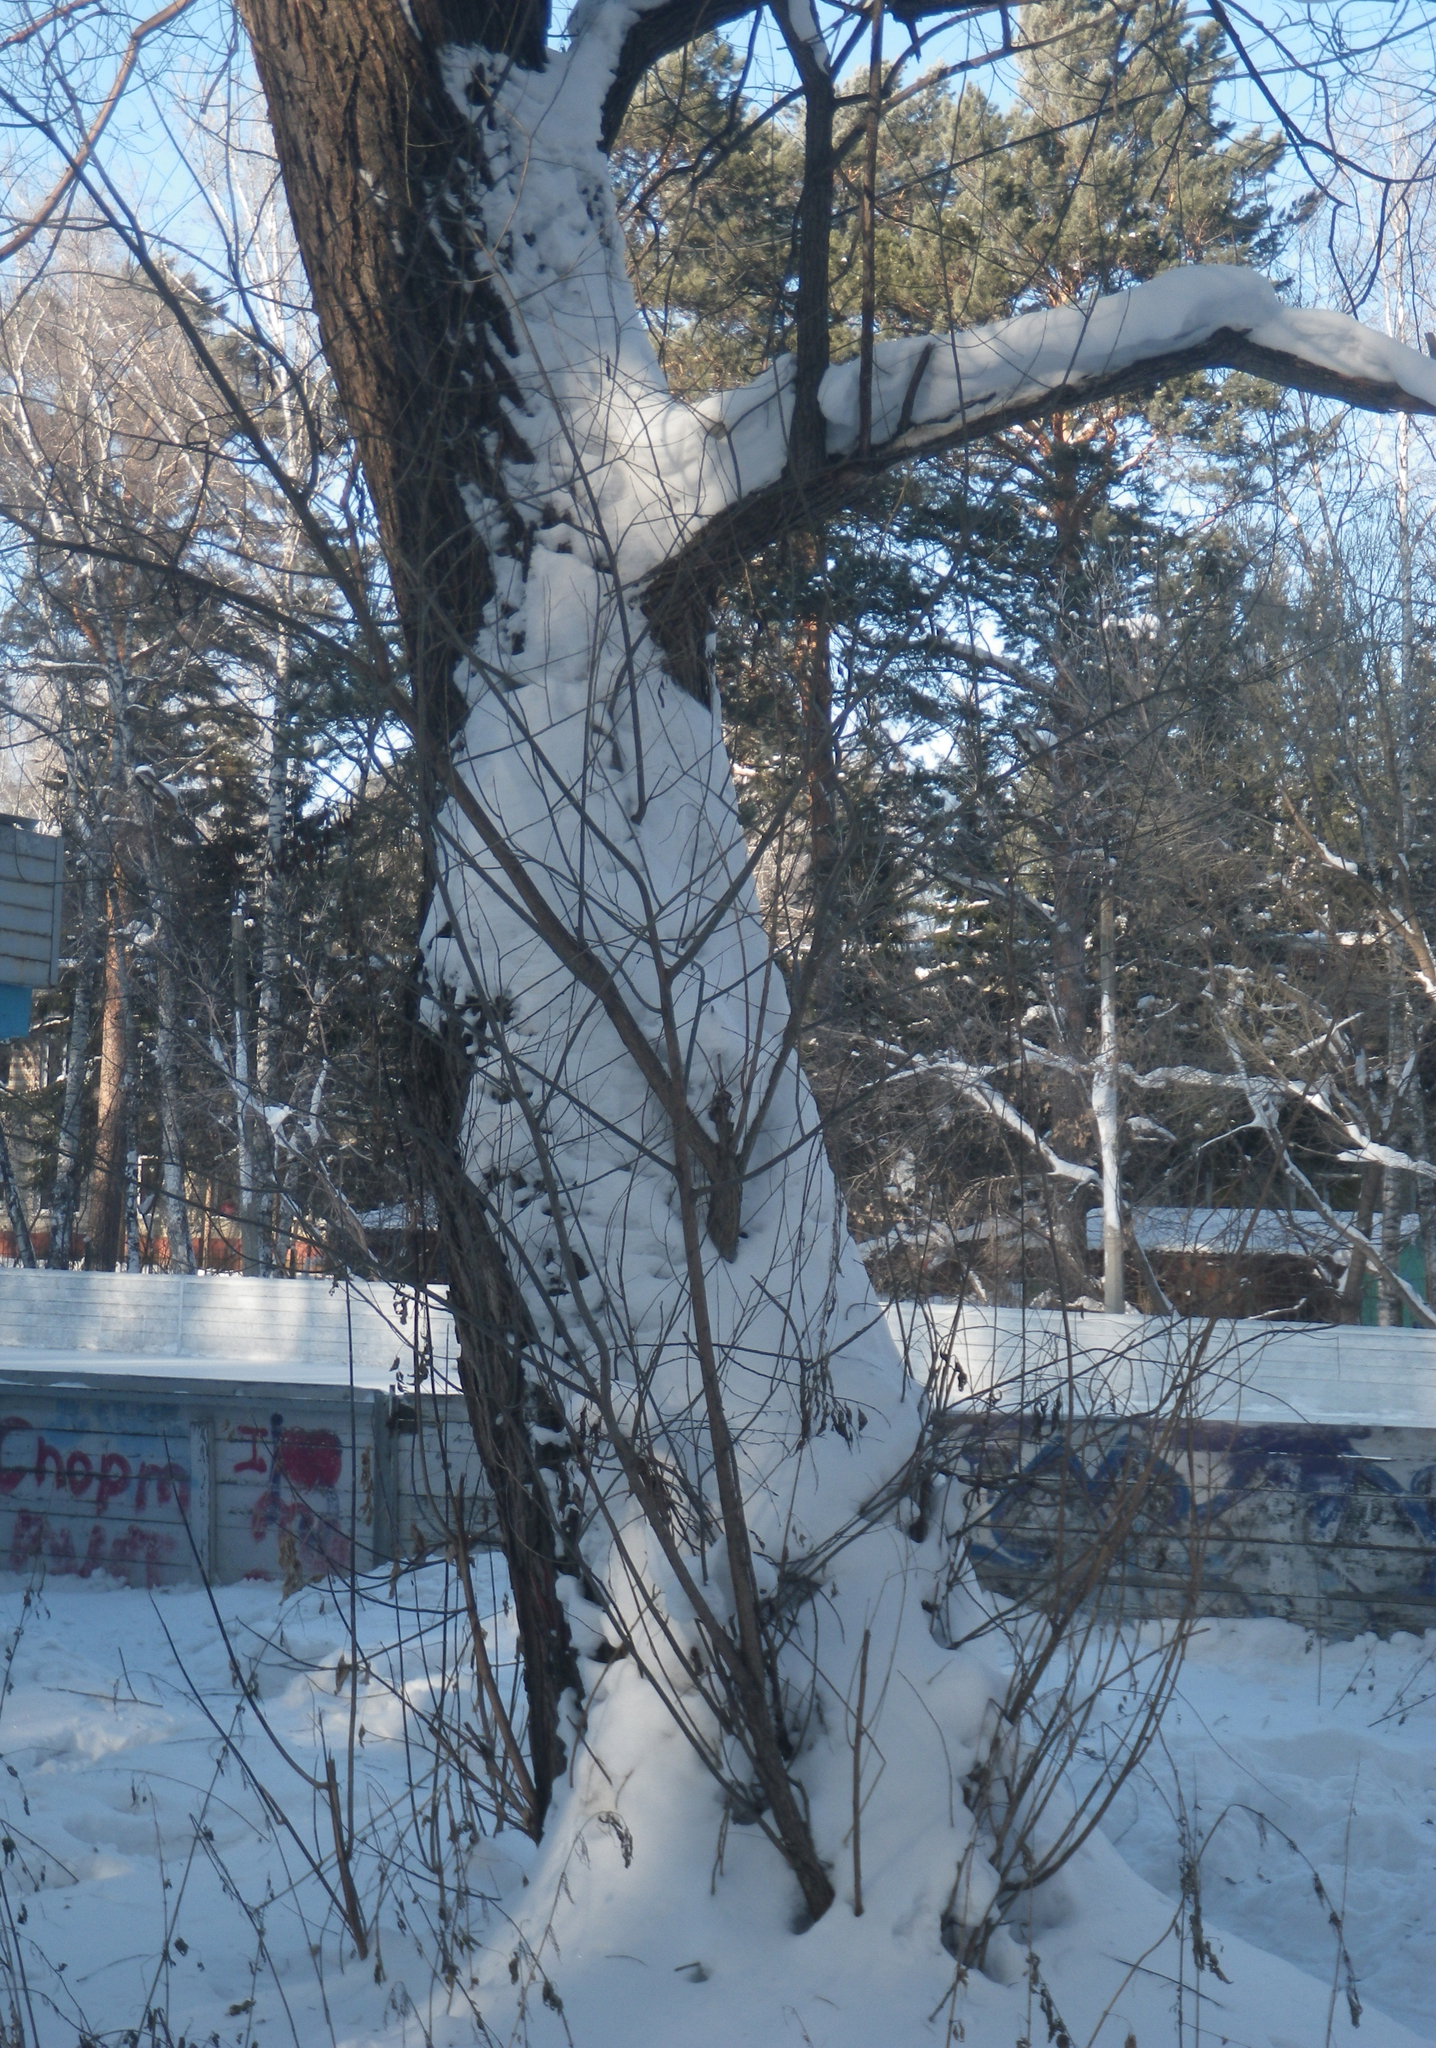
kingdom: Plantae
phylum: Tracheophyta
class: Magnoliopsida
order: Malpighiales
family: Salicaceae
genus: Salix
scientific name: Salix alba
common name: White willow
